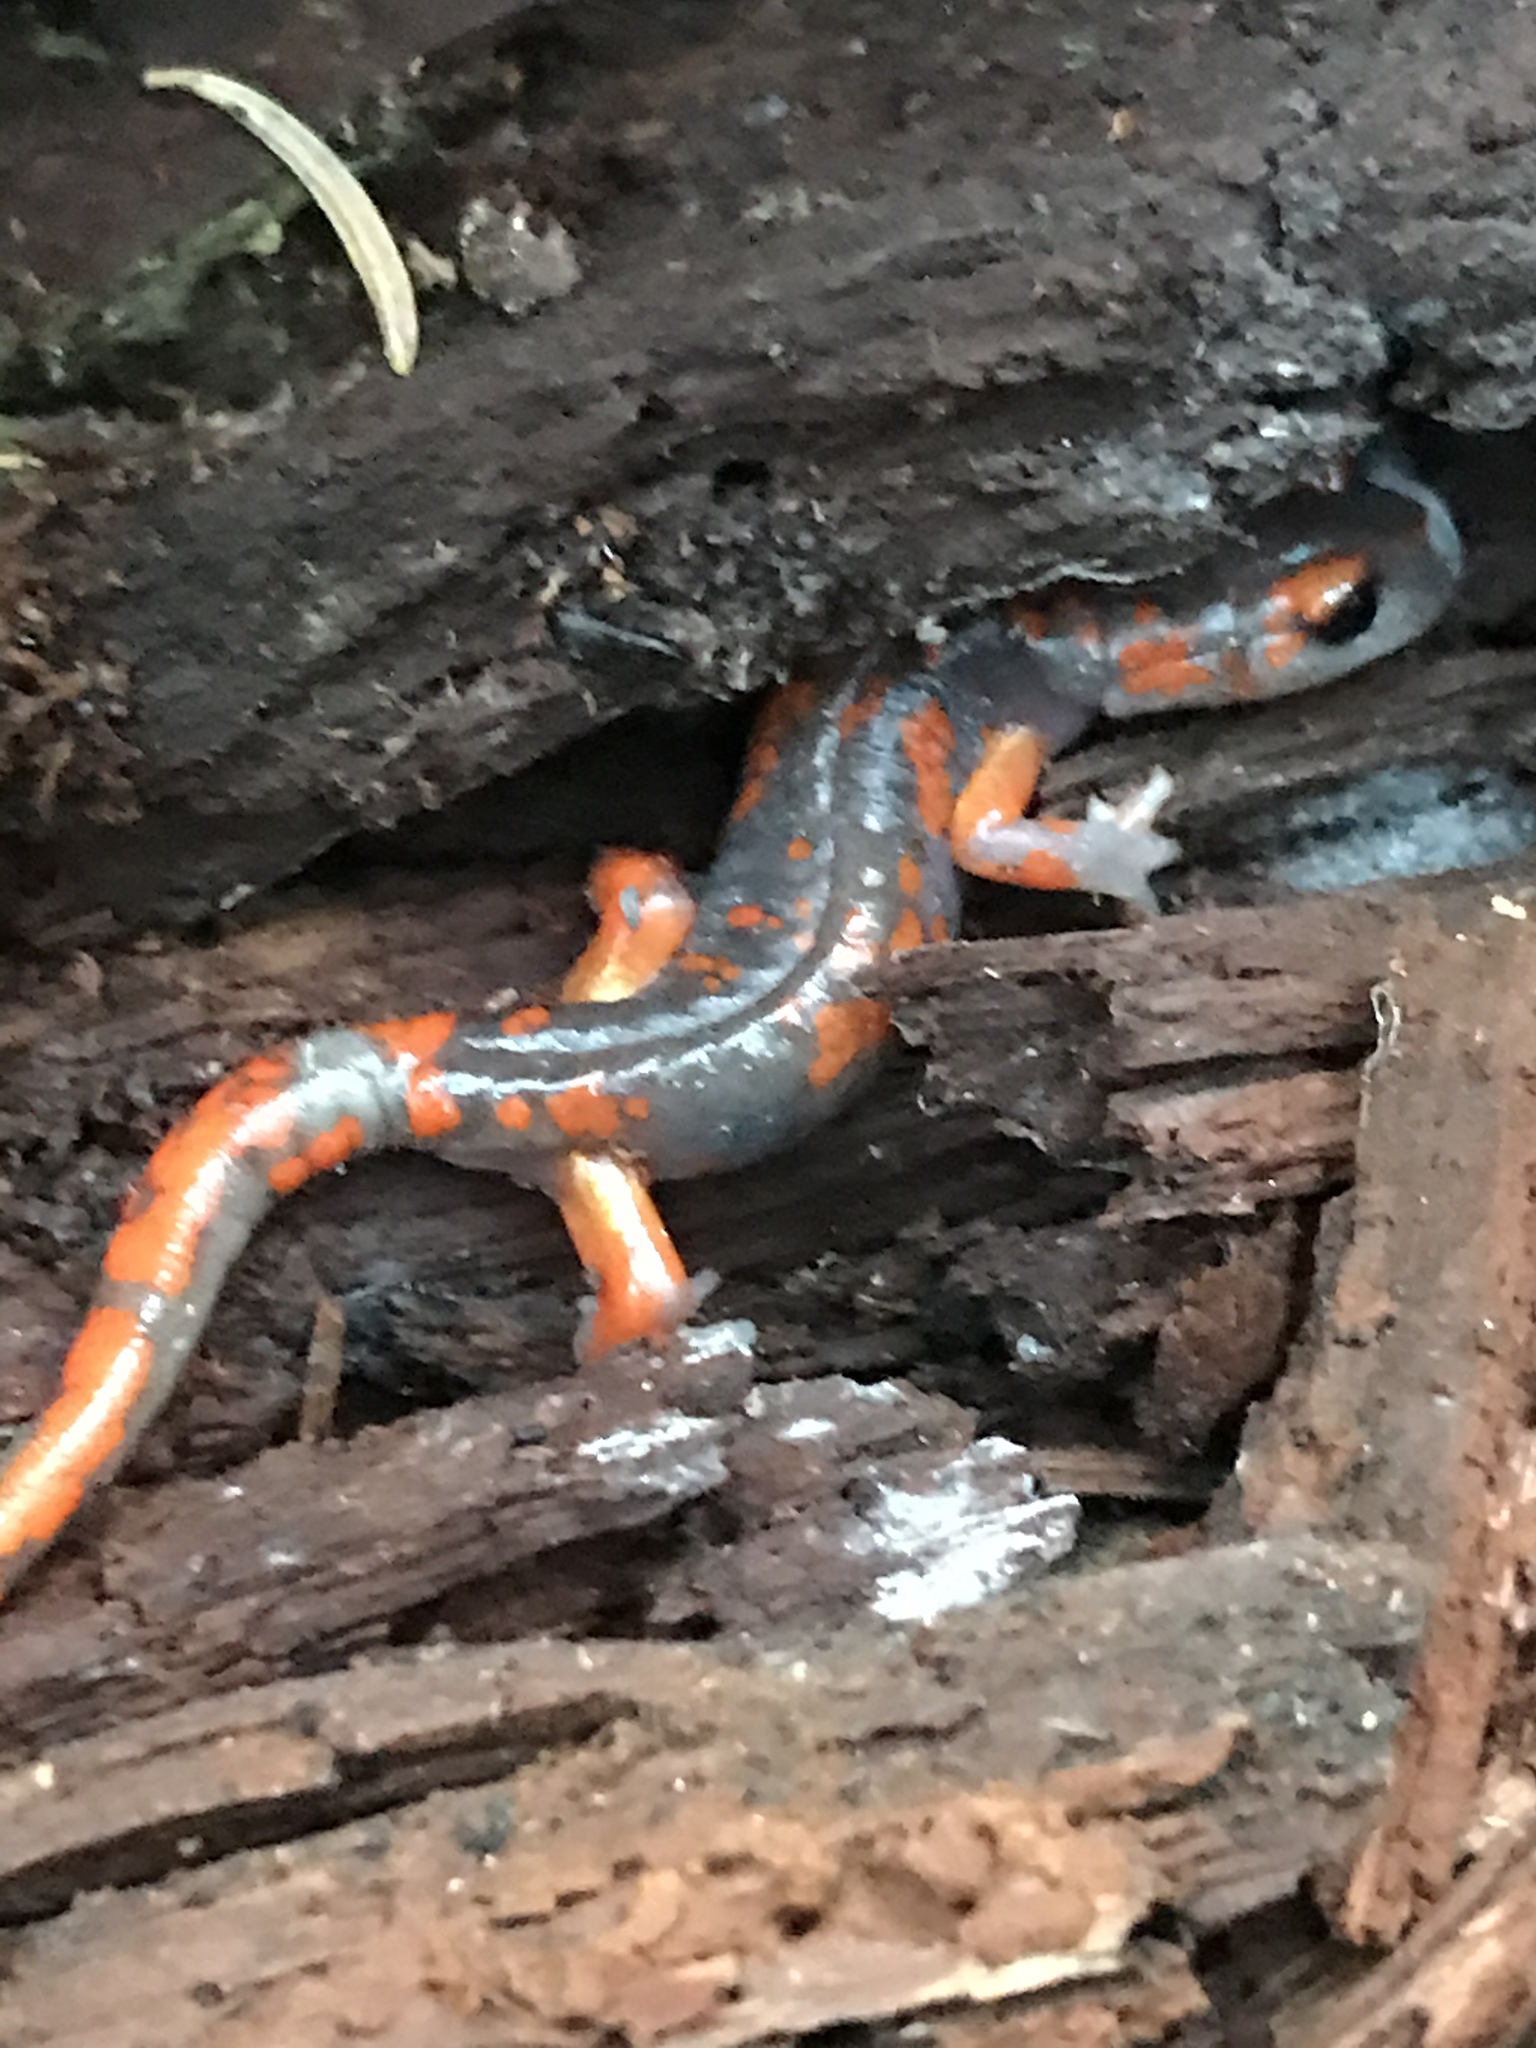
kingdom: Animalia
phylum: Chordata
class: Amphibia
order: Caudata
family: Plethodontidae
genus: Ensatina
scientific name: Ensatina eschscholtzii
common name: Ensatina
